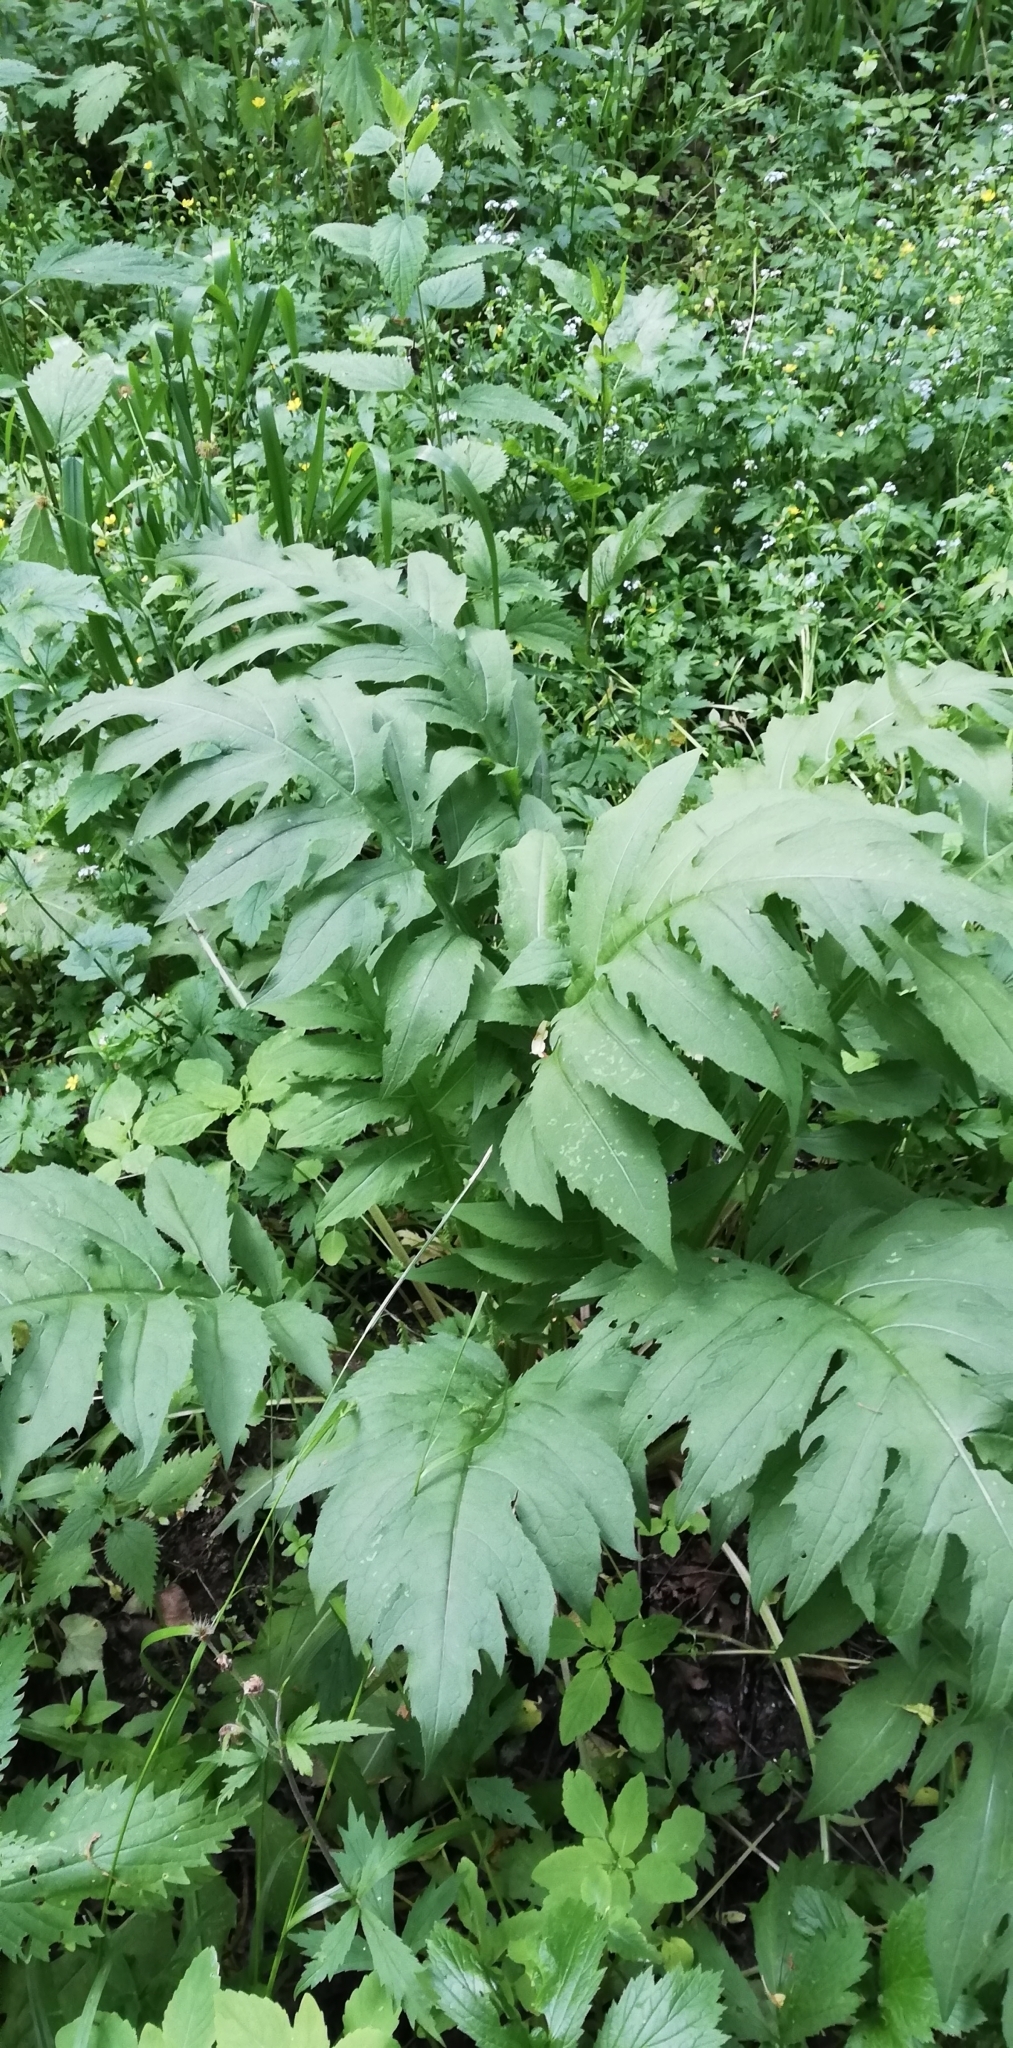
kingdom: Plantae
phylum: Tracheophyta
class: Magnoliopsida
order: Asterales
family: Asteraceae
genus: Cirsium
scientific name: Cirsium oleraceum
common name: Cabbage thistle
